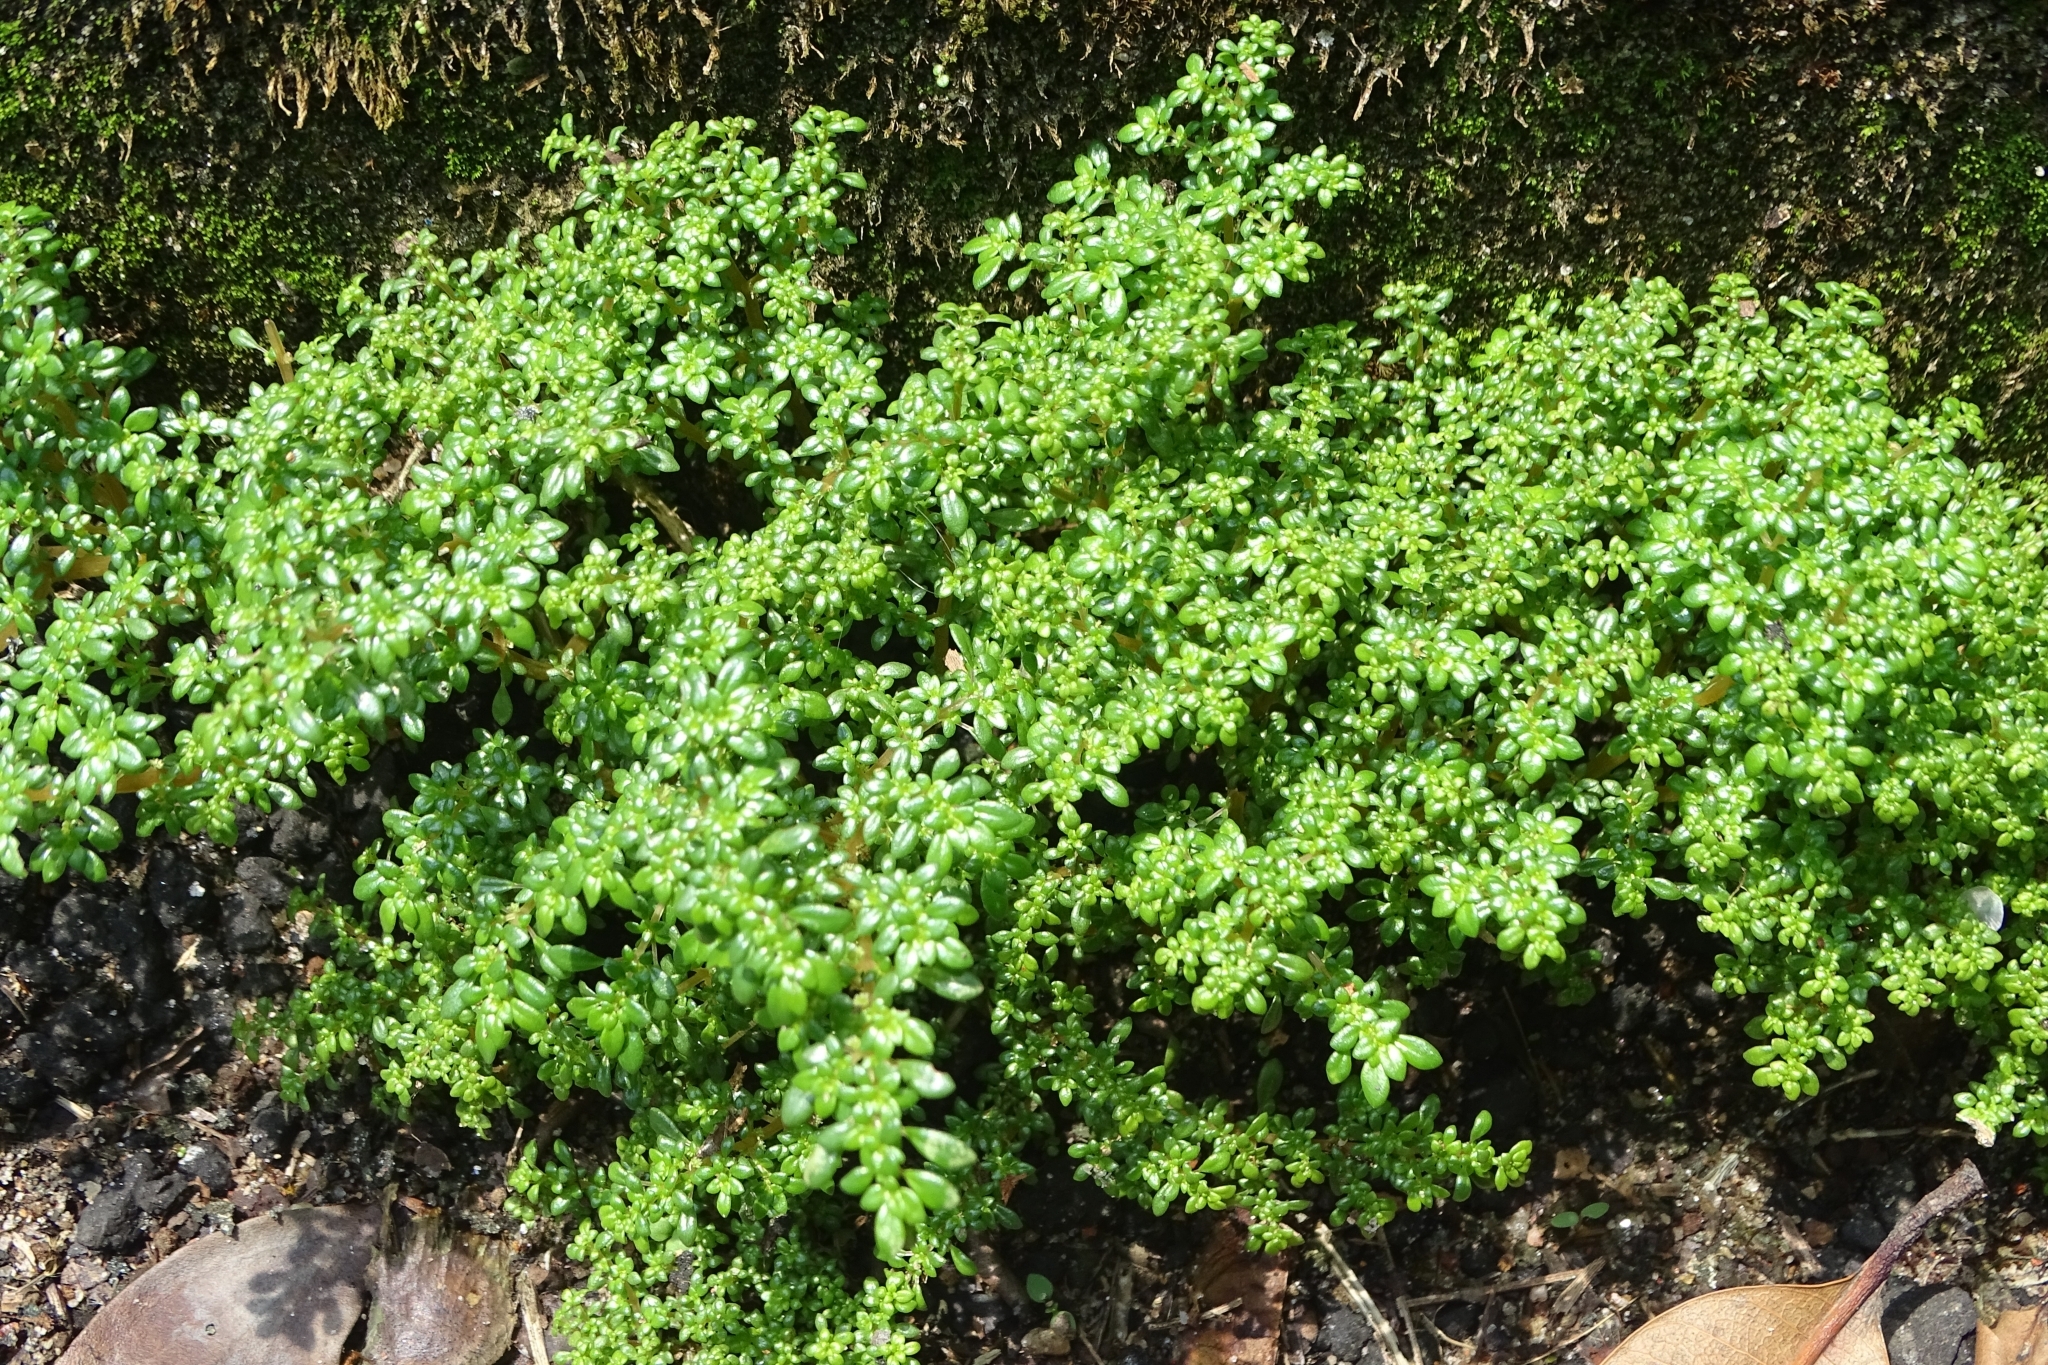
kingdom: Plantae
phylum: Tracheophyta
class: Magnoliopsida
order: Rosales
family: Urticaceae
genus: Pilea
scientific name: Pilea microphylla
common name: Artillery-plant
